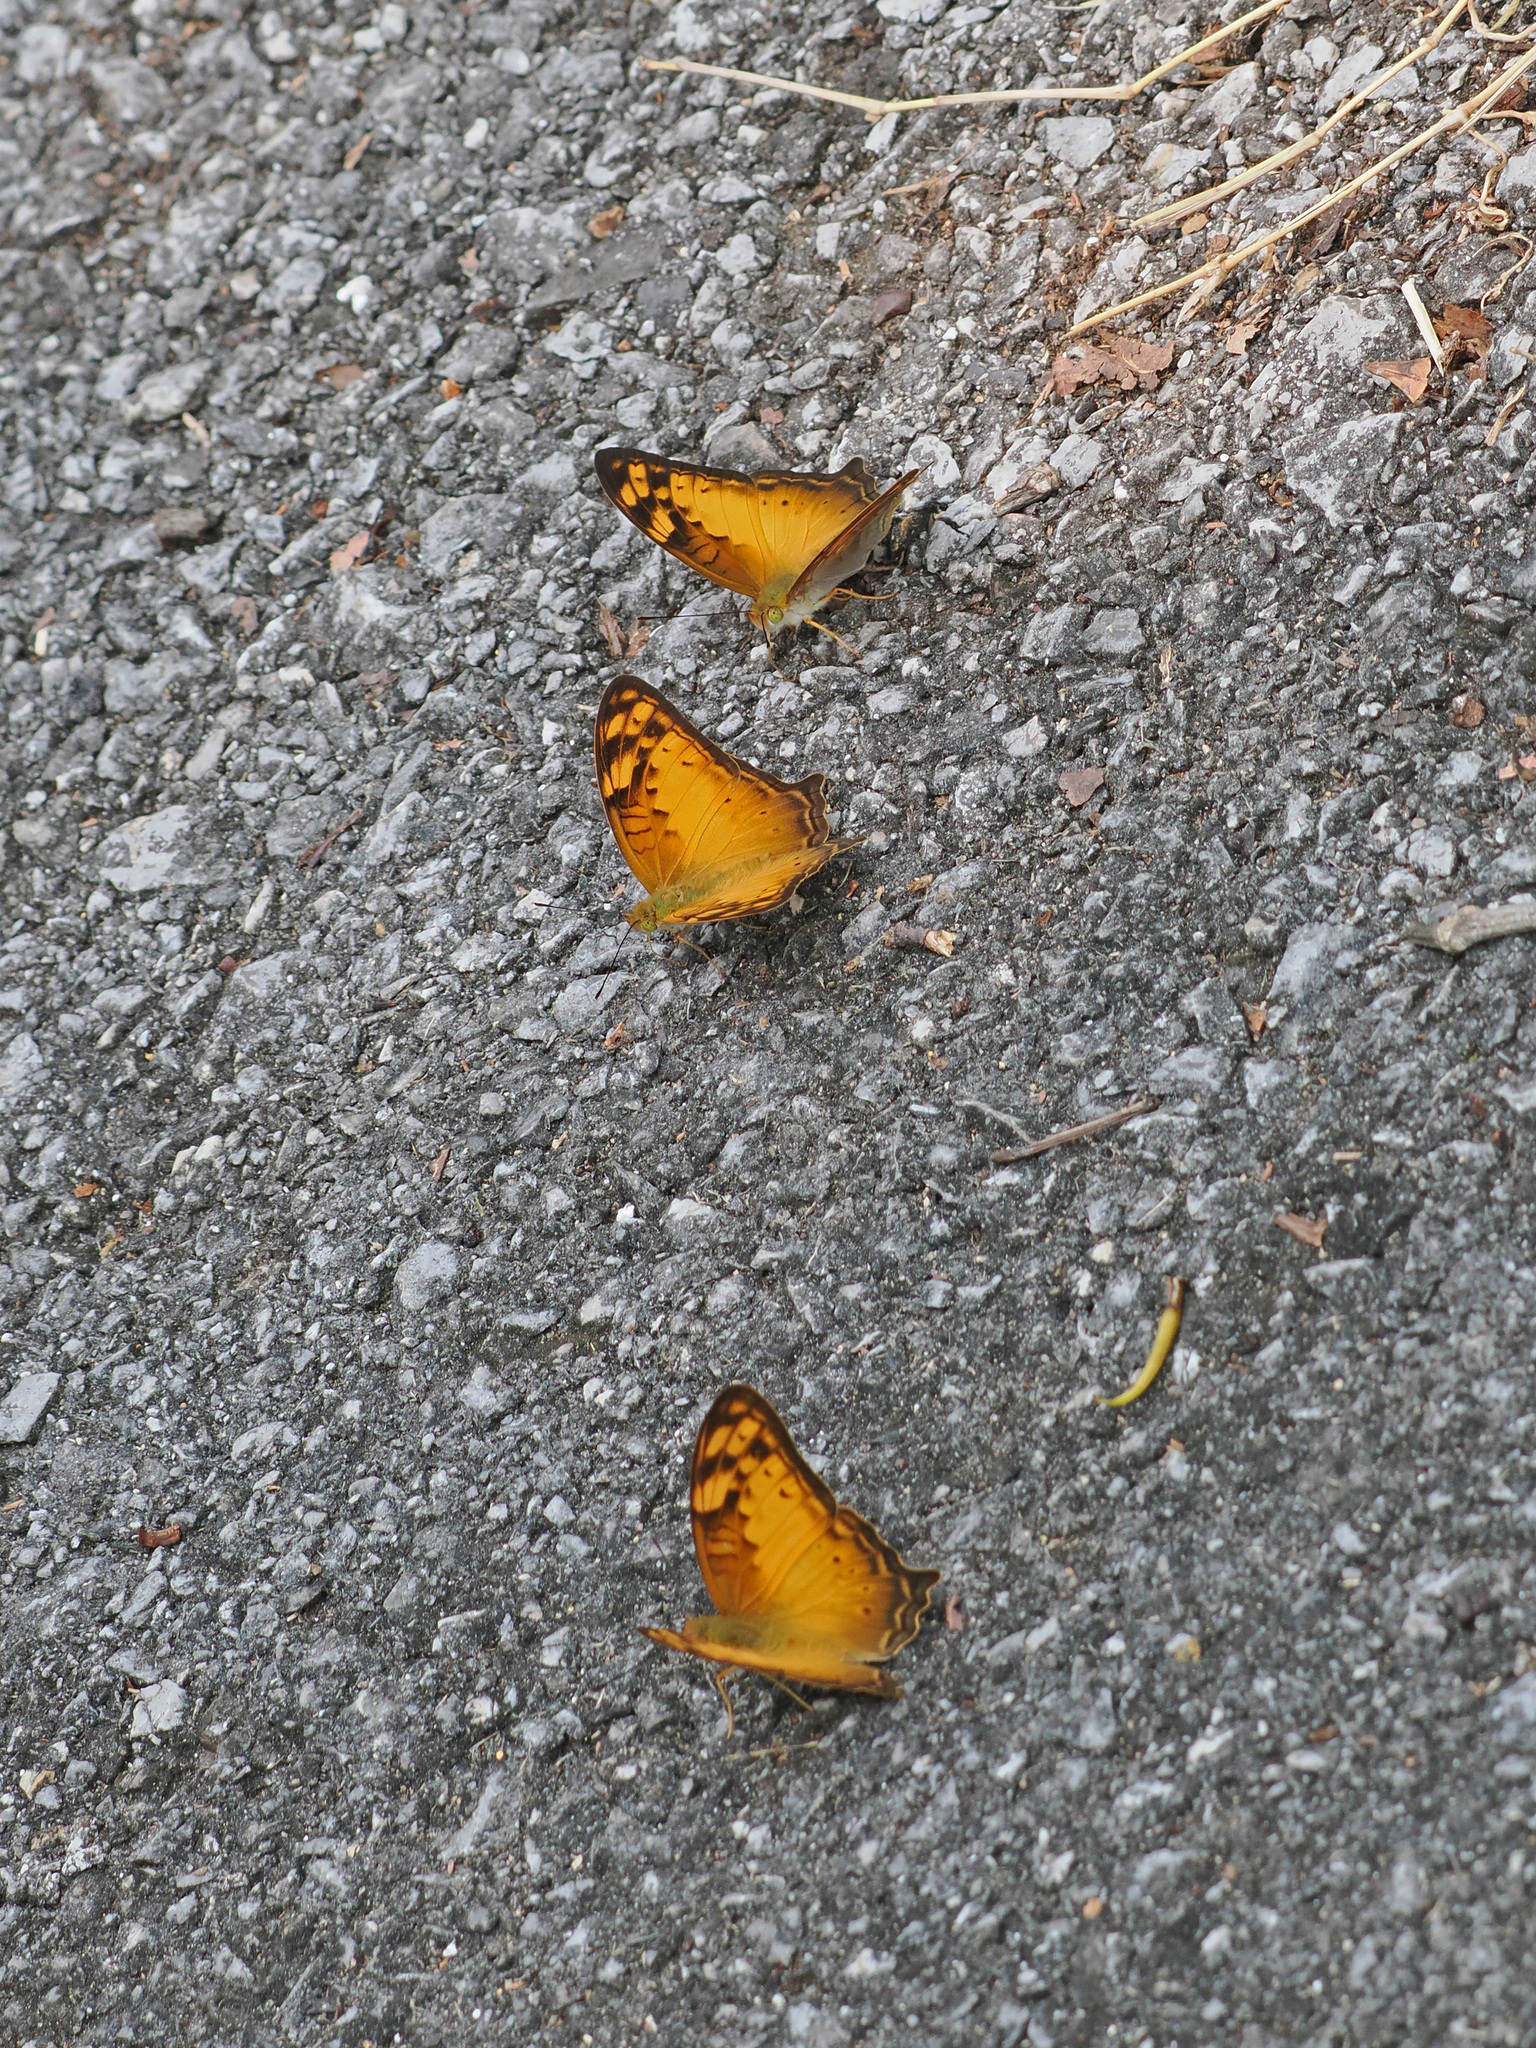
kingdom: Animalia
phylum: Arthropoda
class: Insecta
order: Lepidoptera
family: Nymphalidae
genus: Vagrans
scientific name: Vagrans sinha
